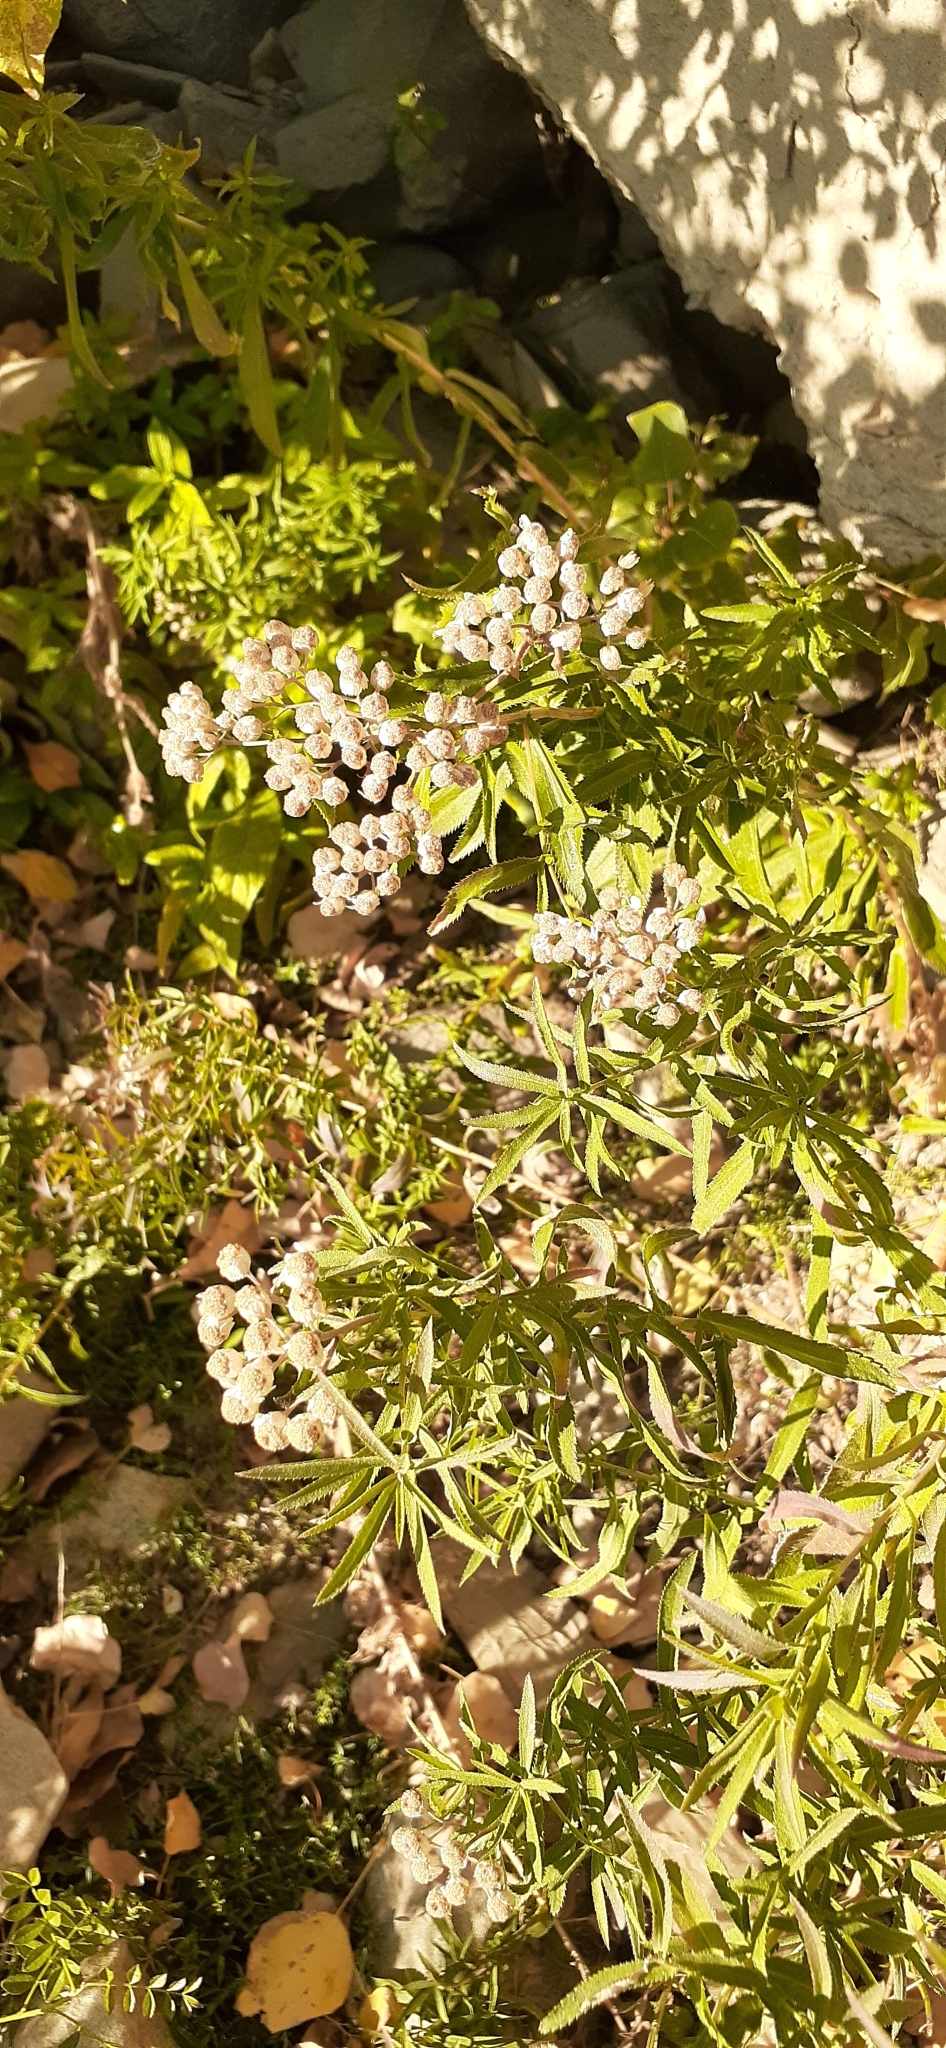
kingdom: Plantae
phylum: Tracheophyta
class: Magnoliopsida
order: Asterales
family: Asteraceae
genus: Achillea
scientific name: Achillea salicifolia
